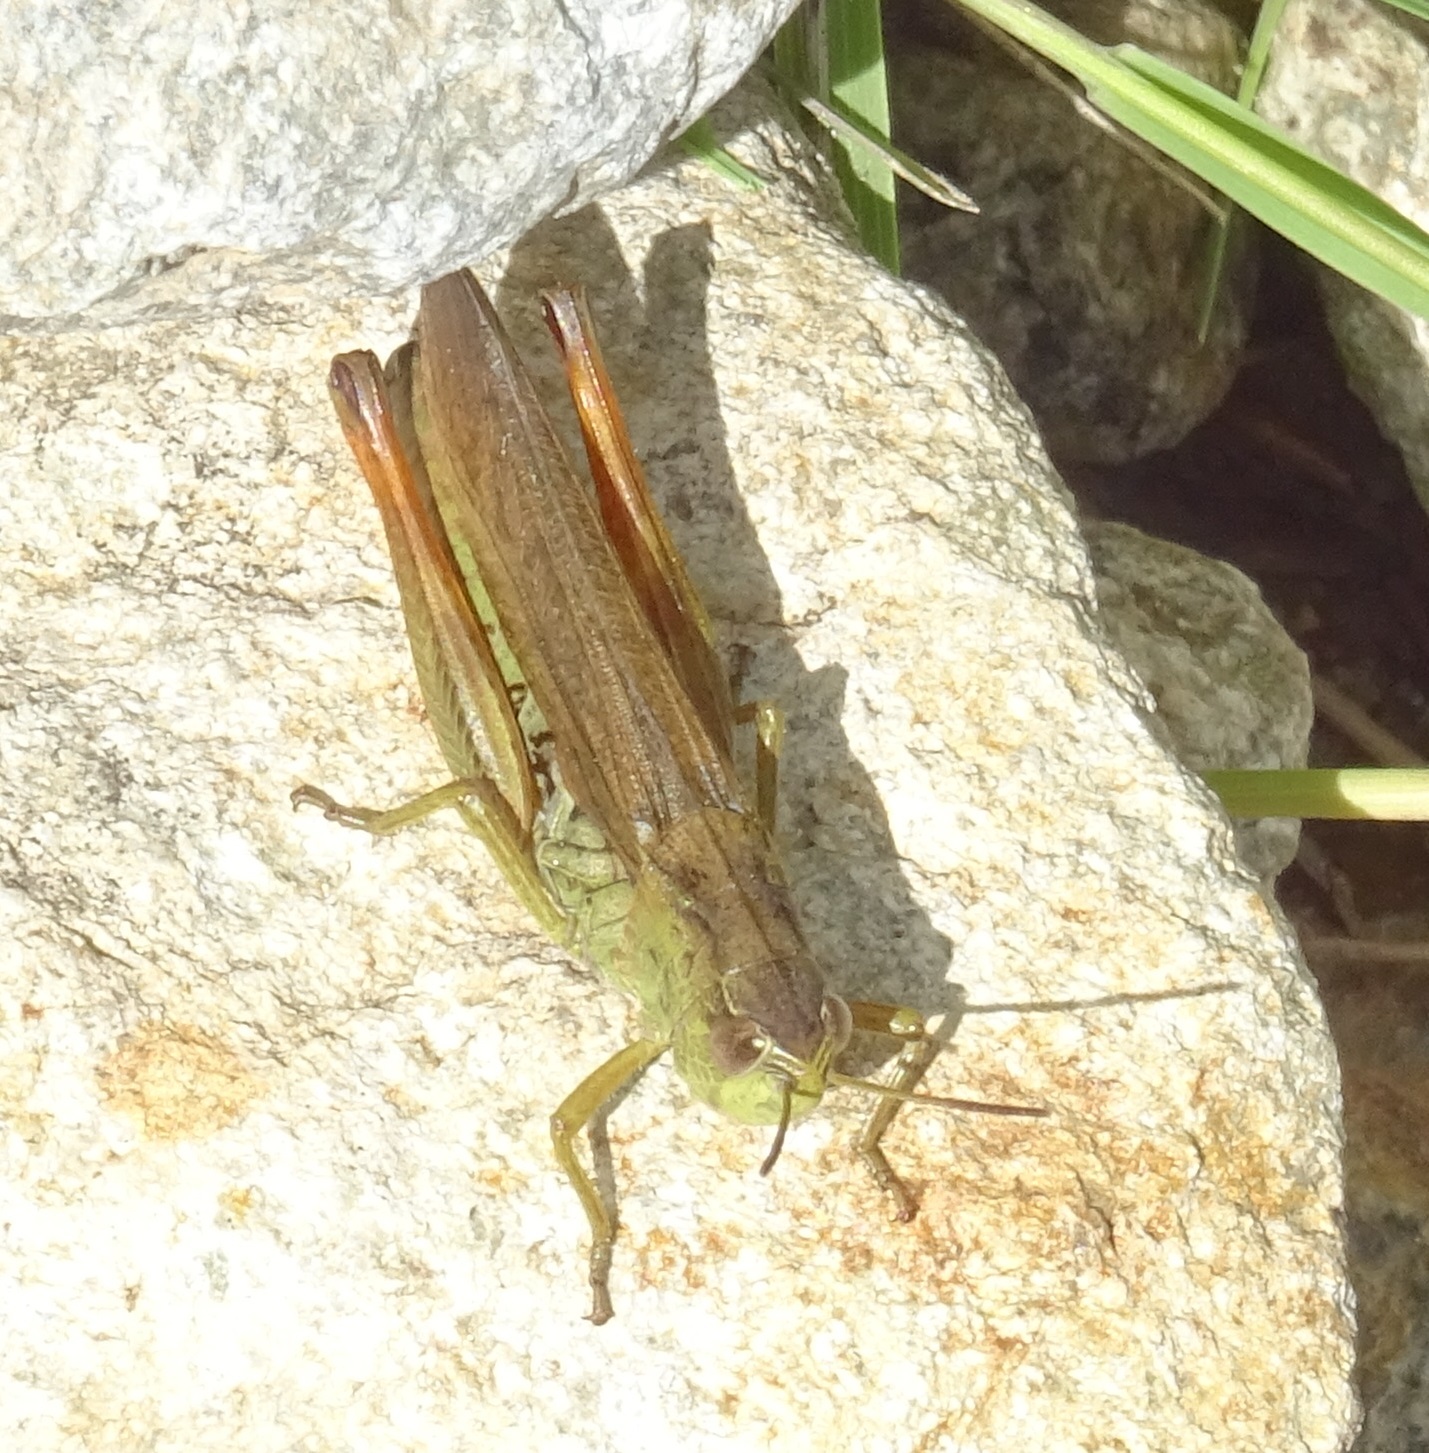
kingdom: Animalia
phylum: Arthropoda
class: Insecta
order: Orthoptera
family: Acrididae
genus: Stauroderus
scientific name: Stauroderus scalaris
